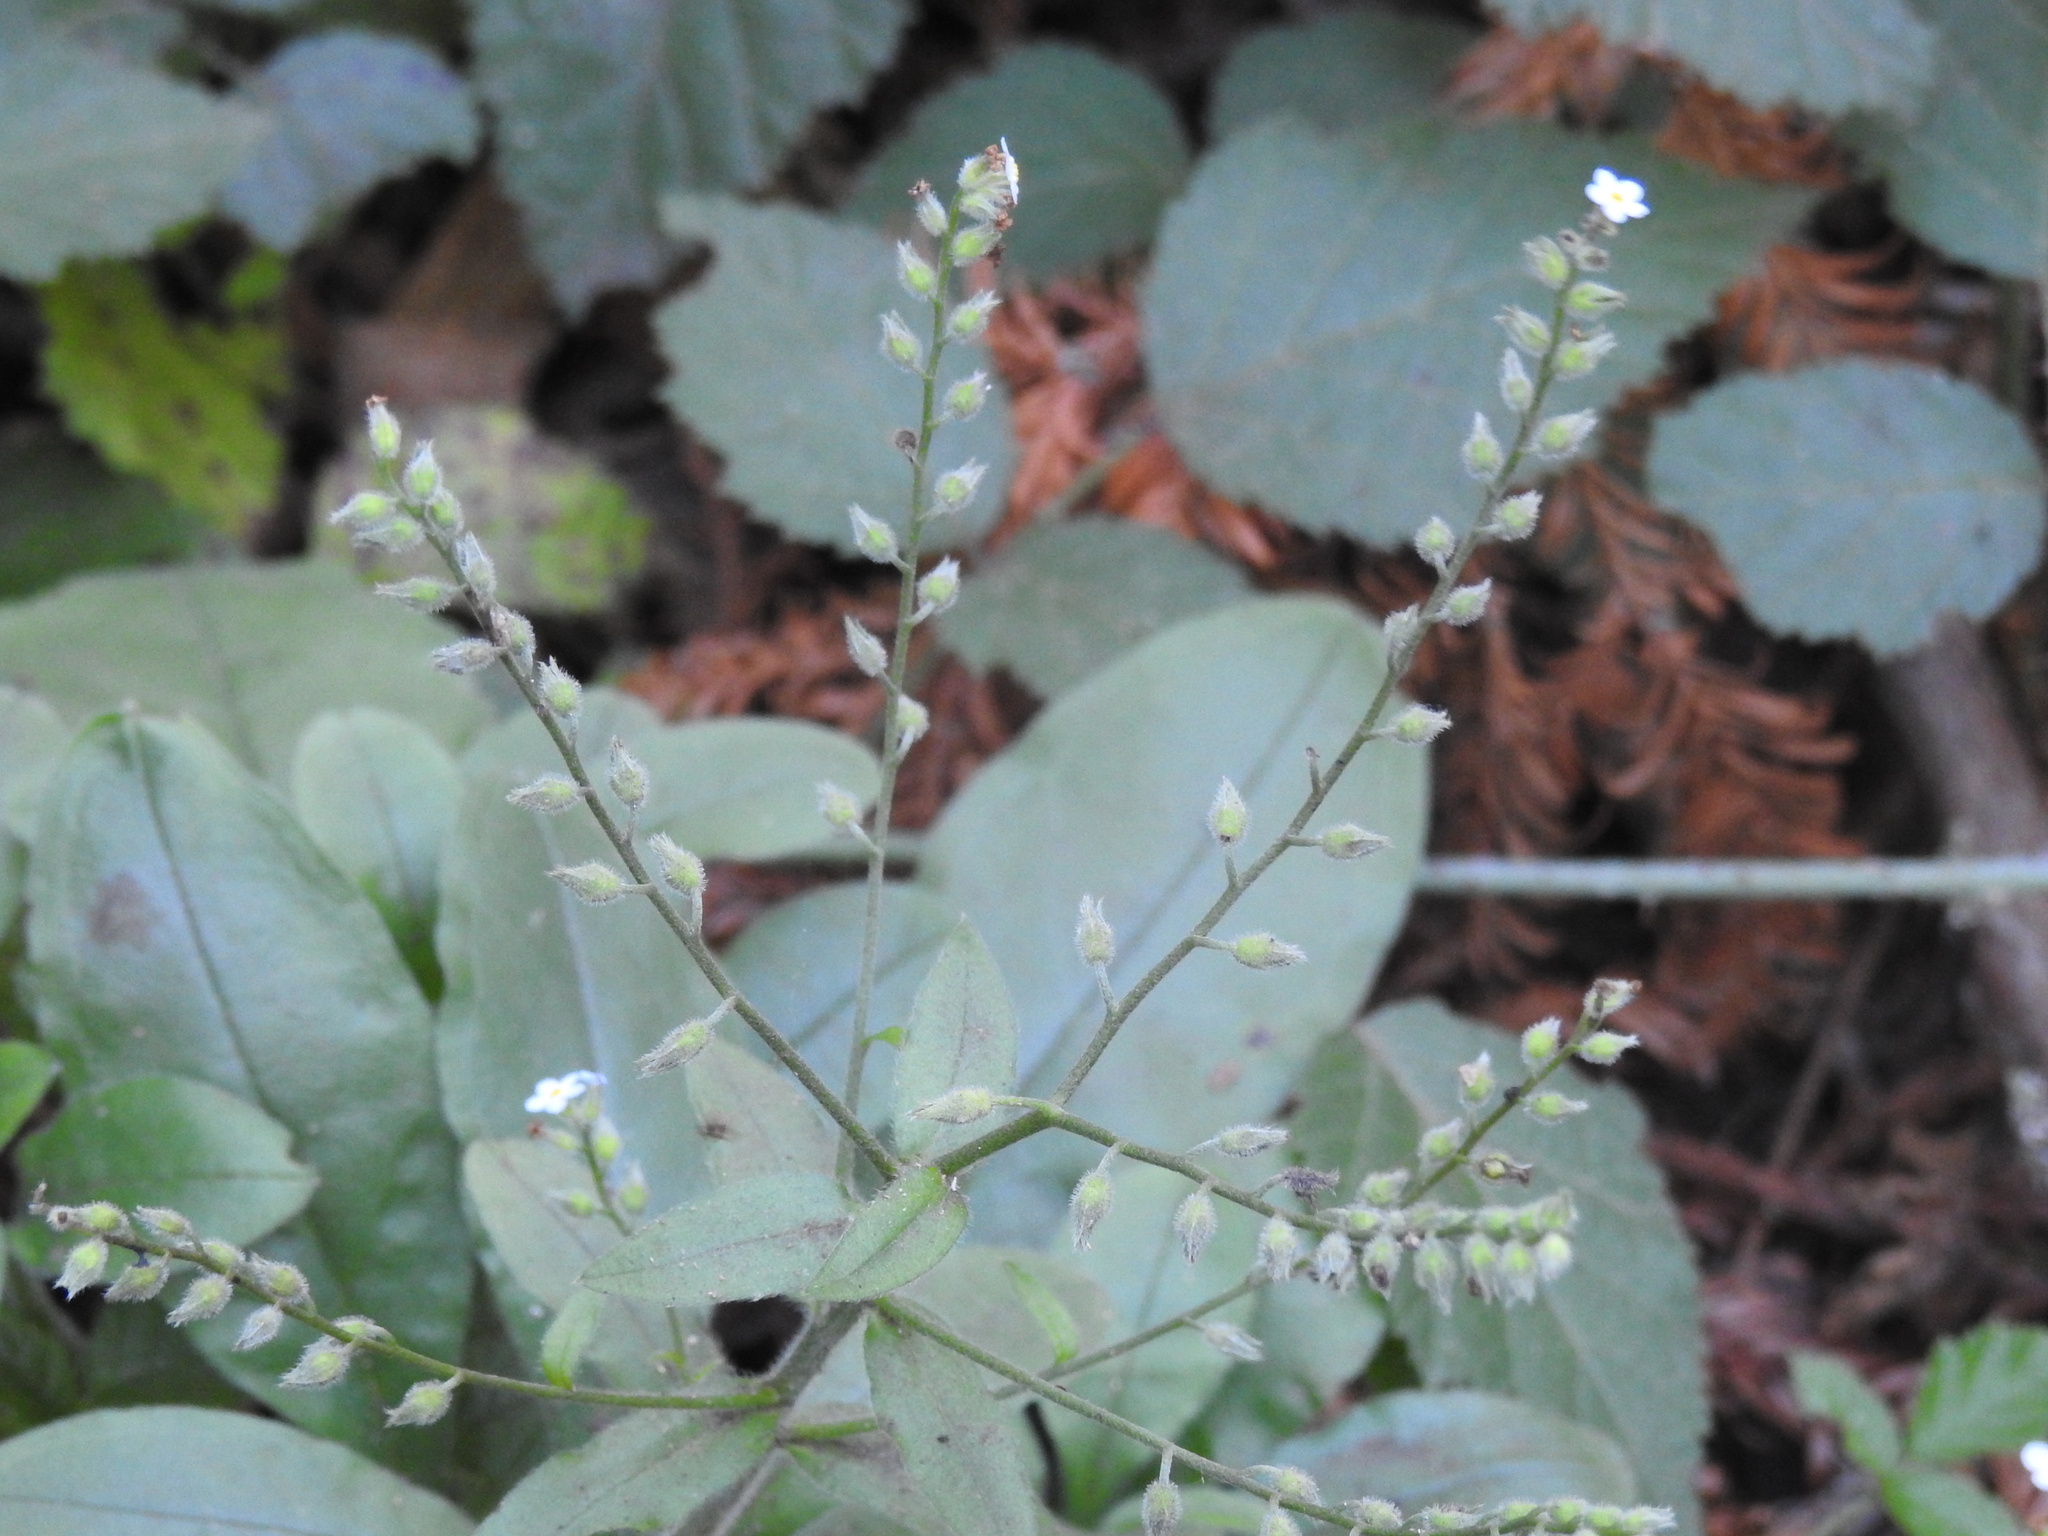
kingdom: Plantae
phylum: Tracheophyta
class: Magnoliopsida
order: Boraginales
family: Boraginaceae
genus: Myosotis
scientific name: Myosotis latifolia
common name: Broadleaf forget-me-not
